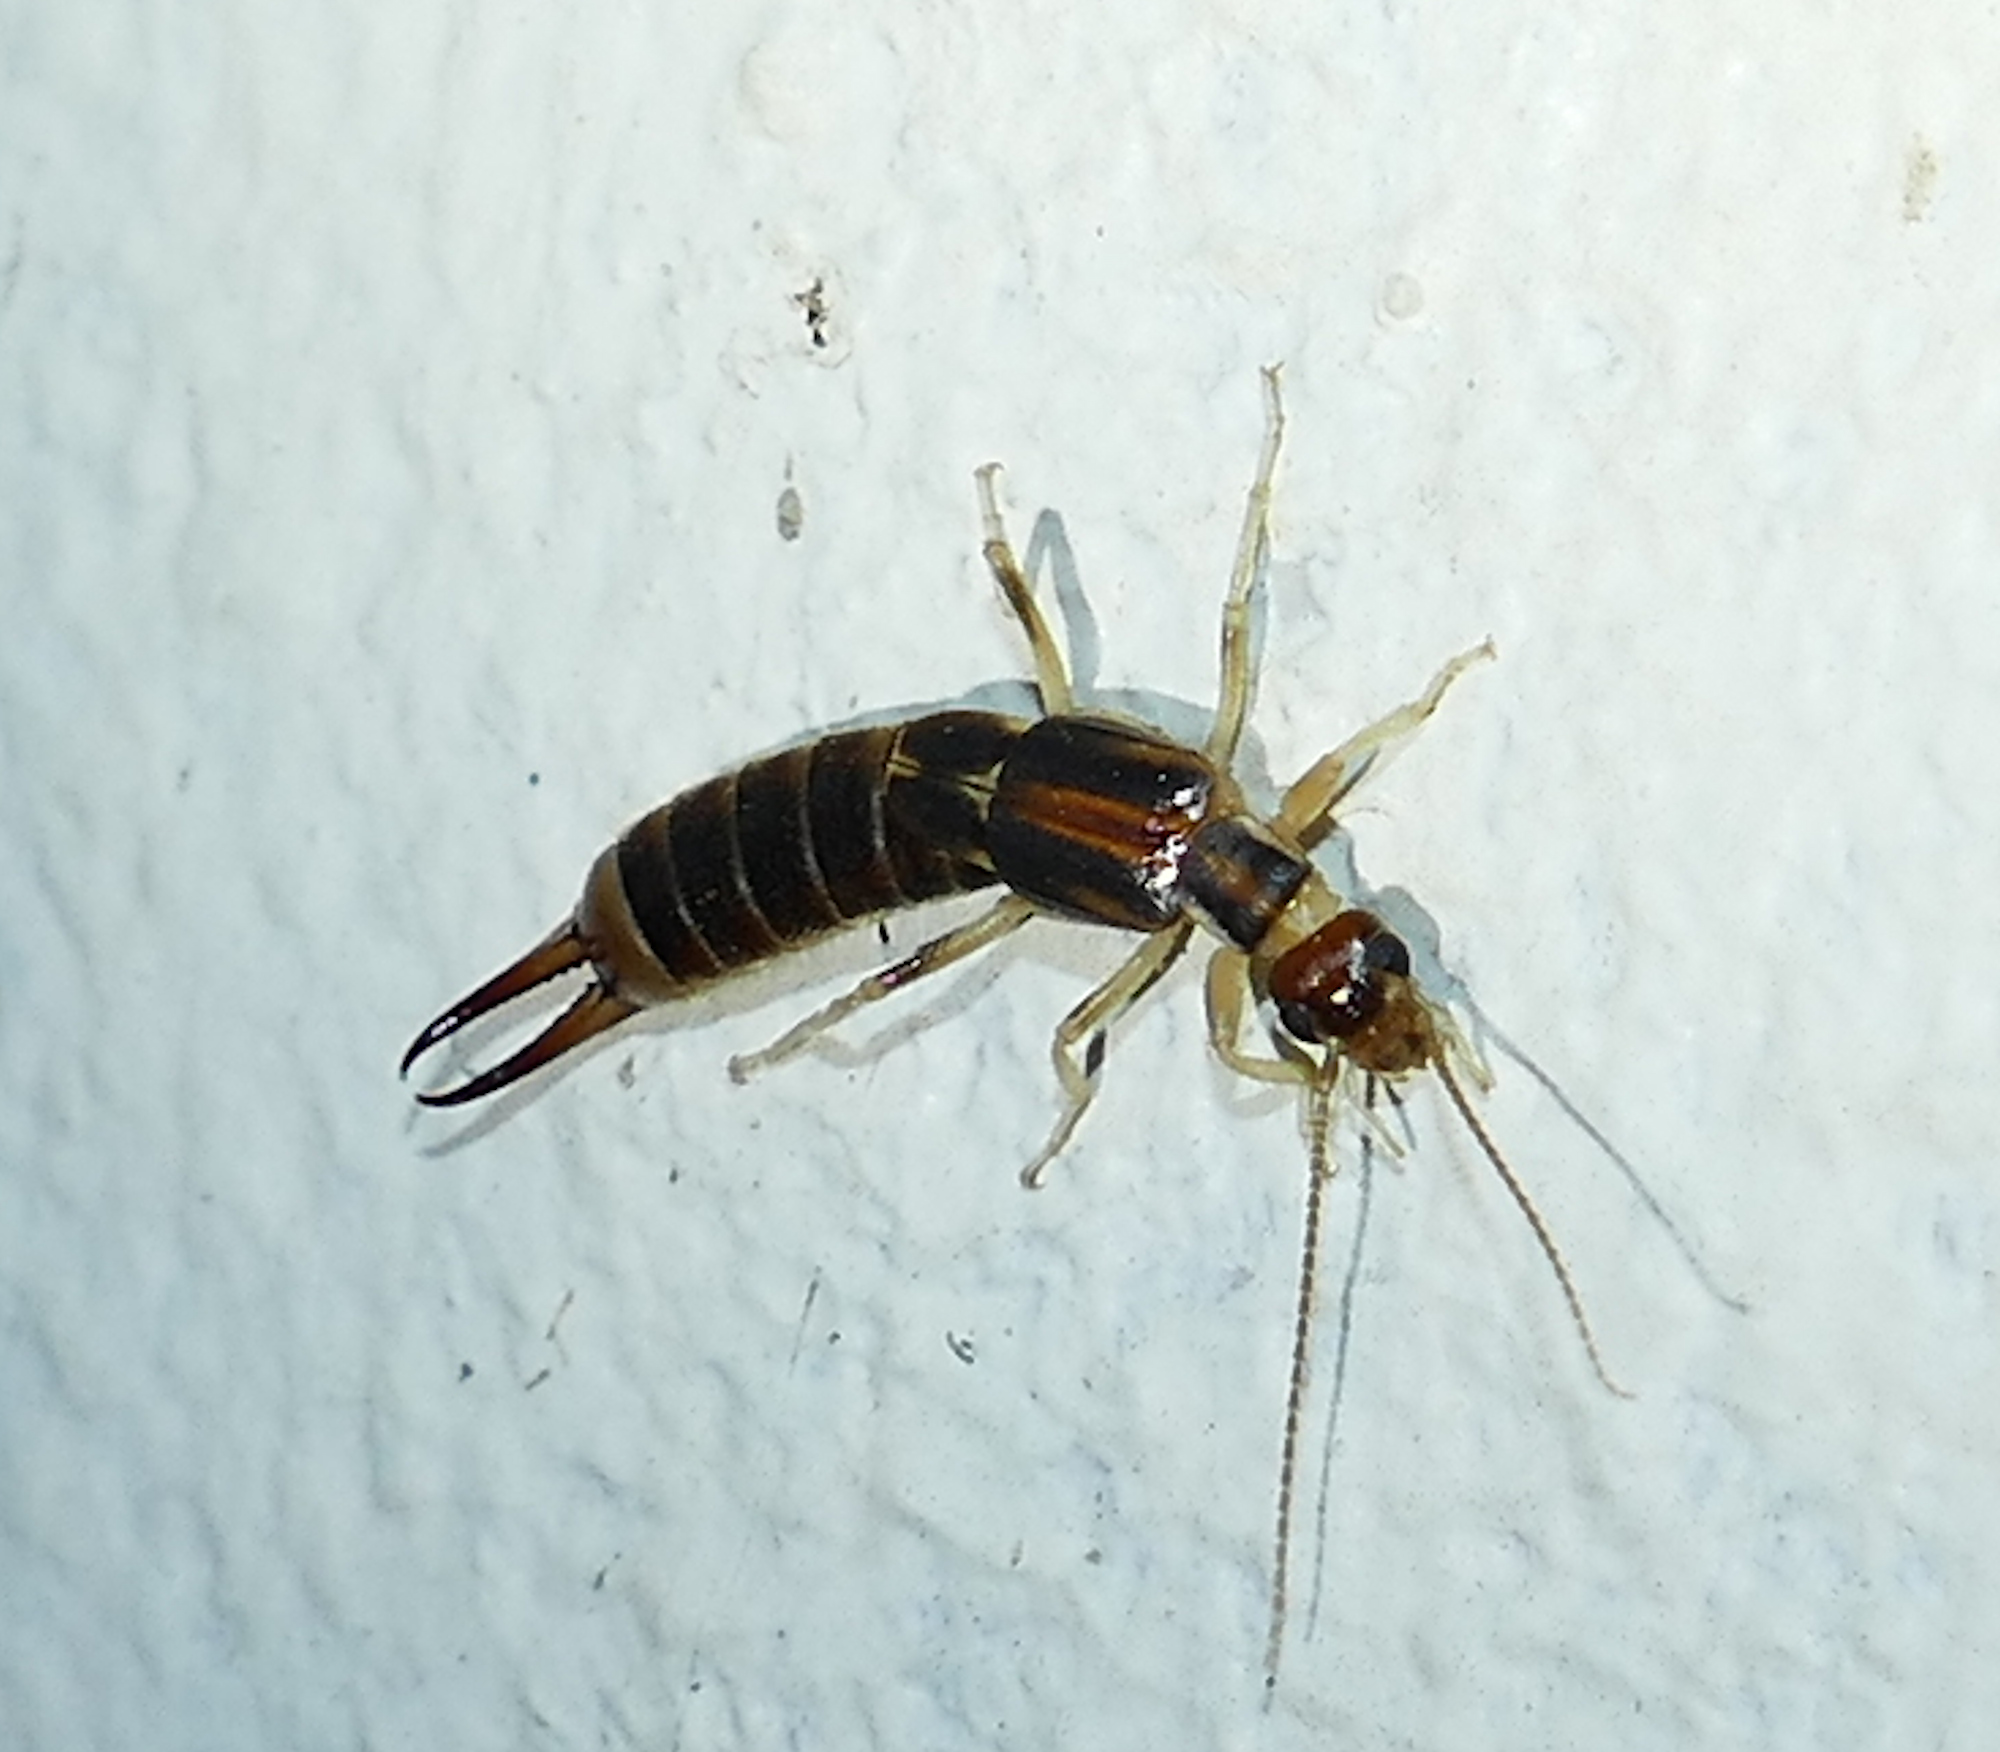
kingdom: Animalia
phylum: Arthropoda
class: Insecta
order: Dermaptera
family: Labiduridae
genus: Labidura
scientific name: Labidura riparia
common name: Striped earwig
